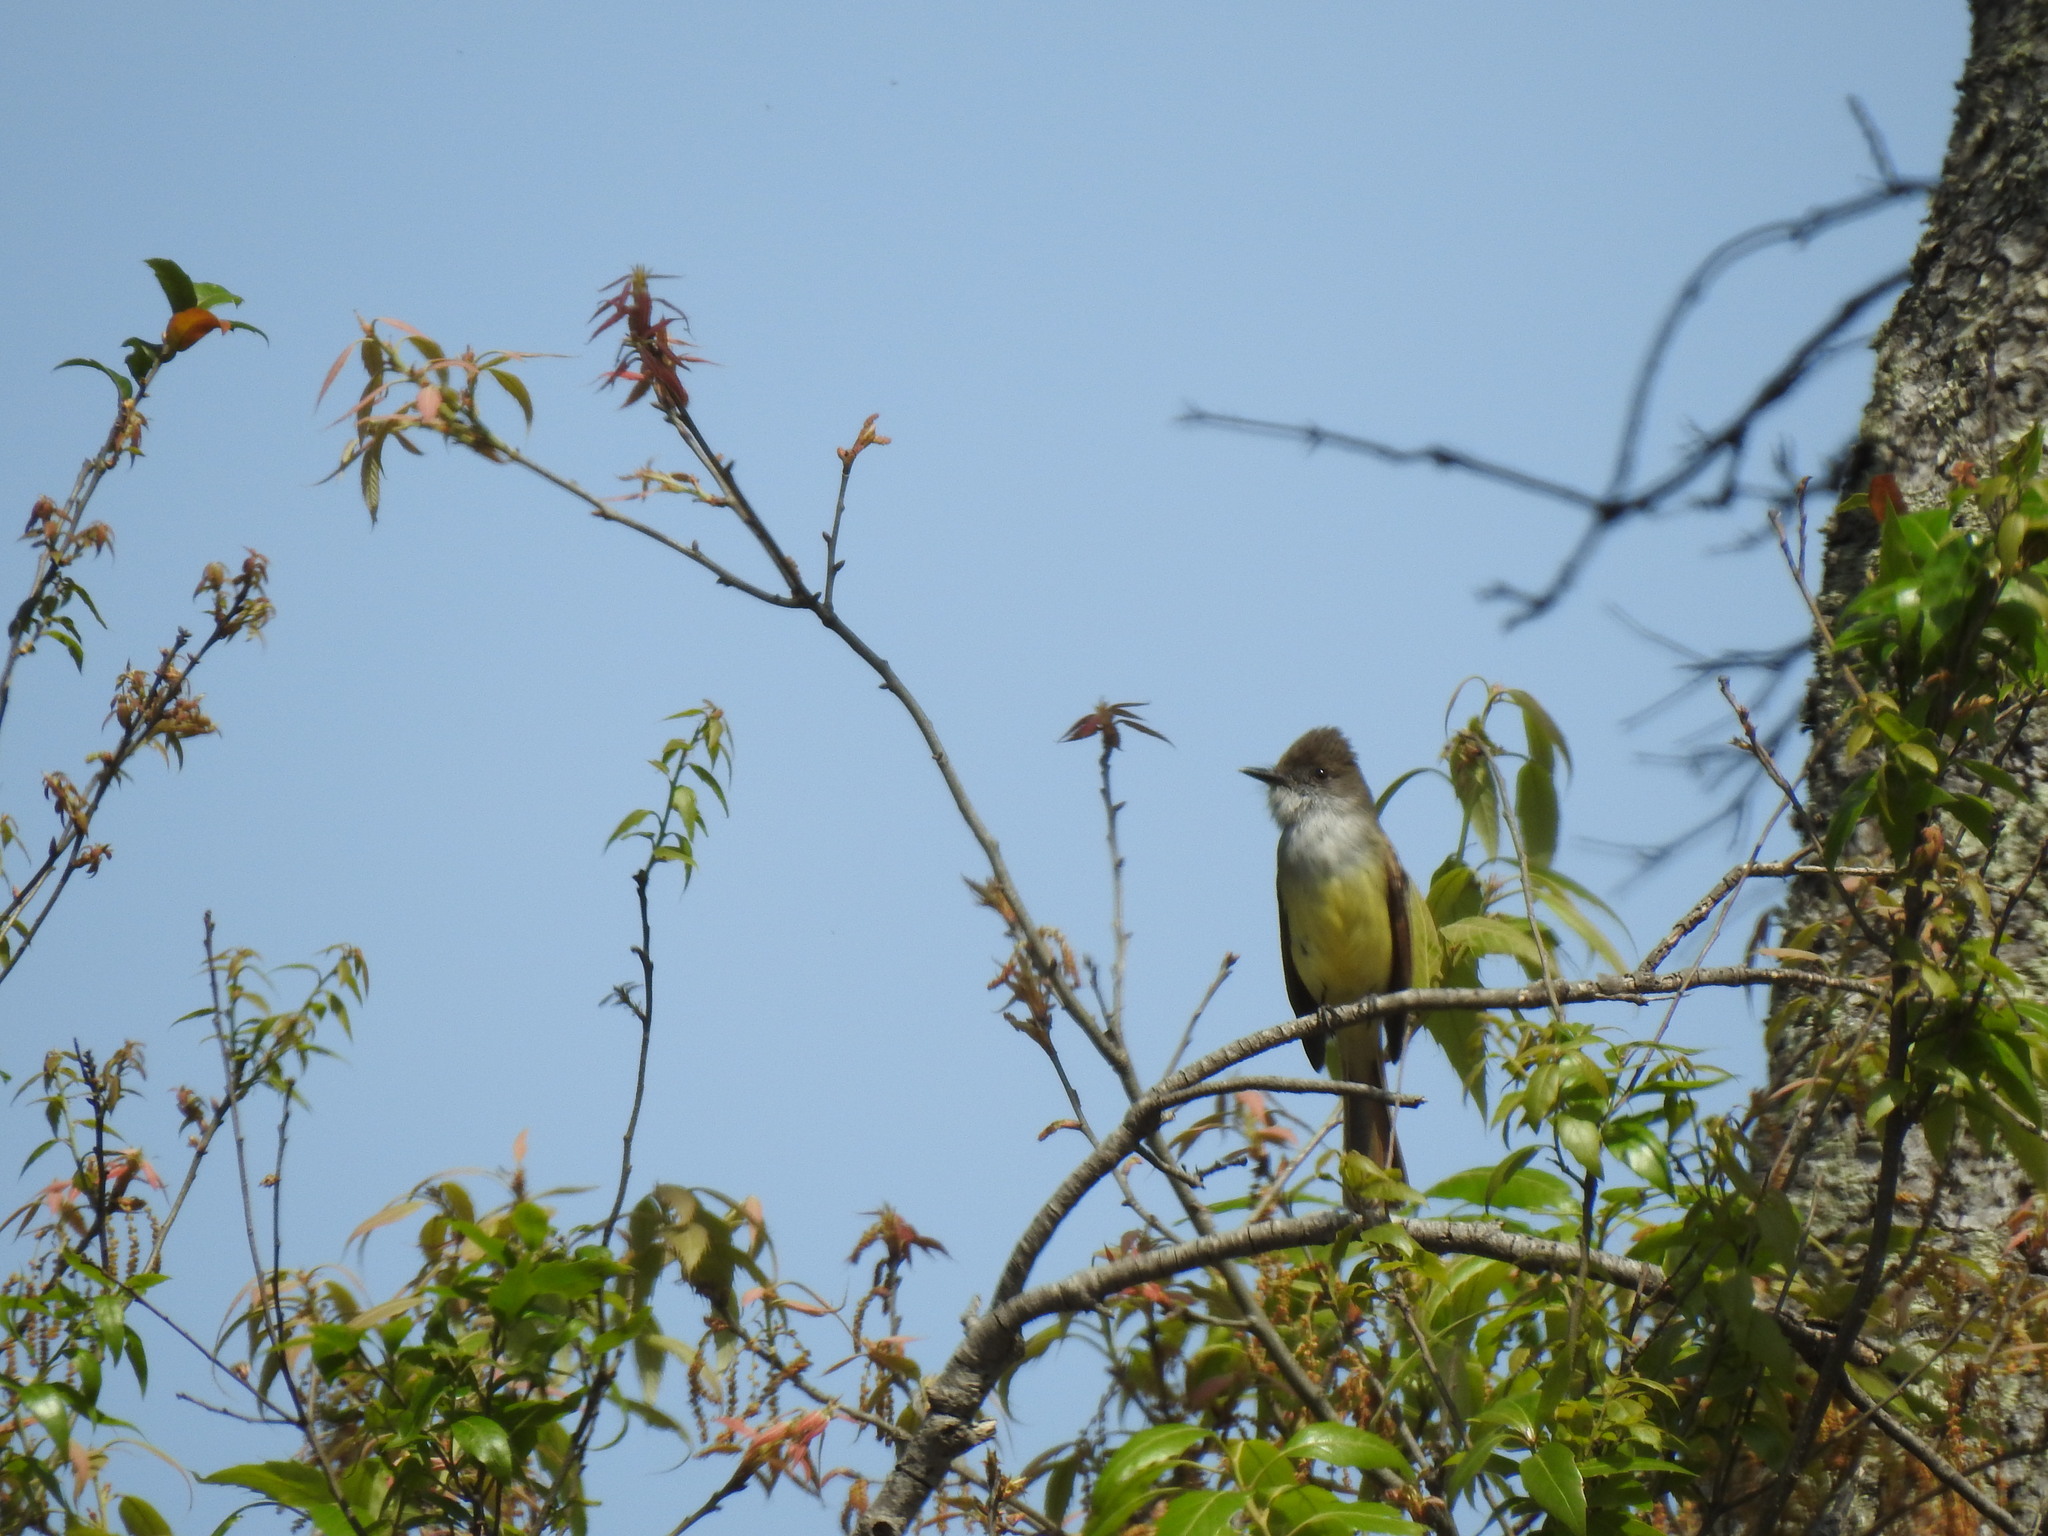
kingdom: Animalia
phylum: Chordata
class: Aves
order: Passeriformes
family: Tyrannidae
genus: Myiarchus
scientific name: Myiarchus tuberculifer
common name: Dusky-capped flycatcher
